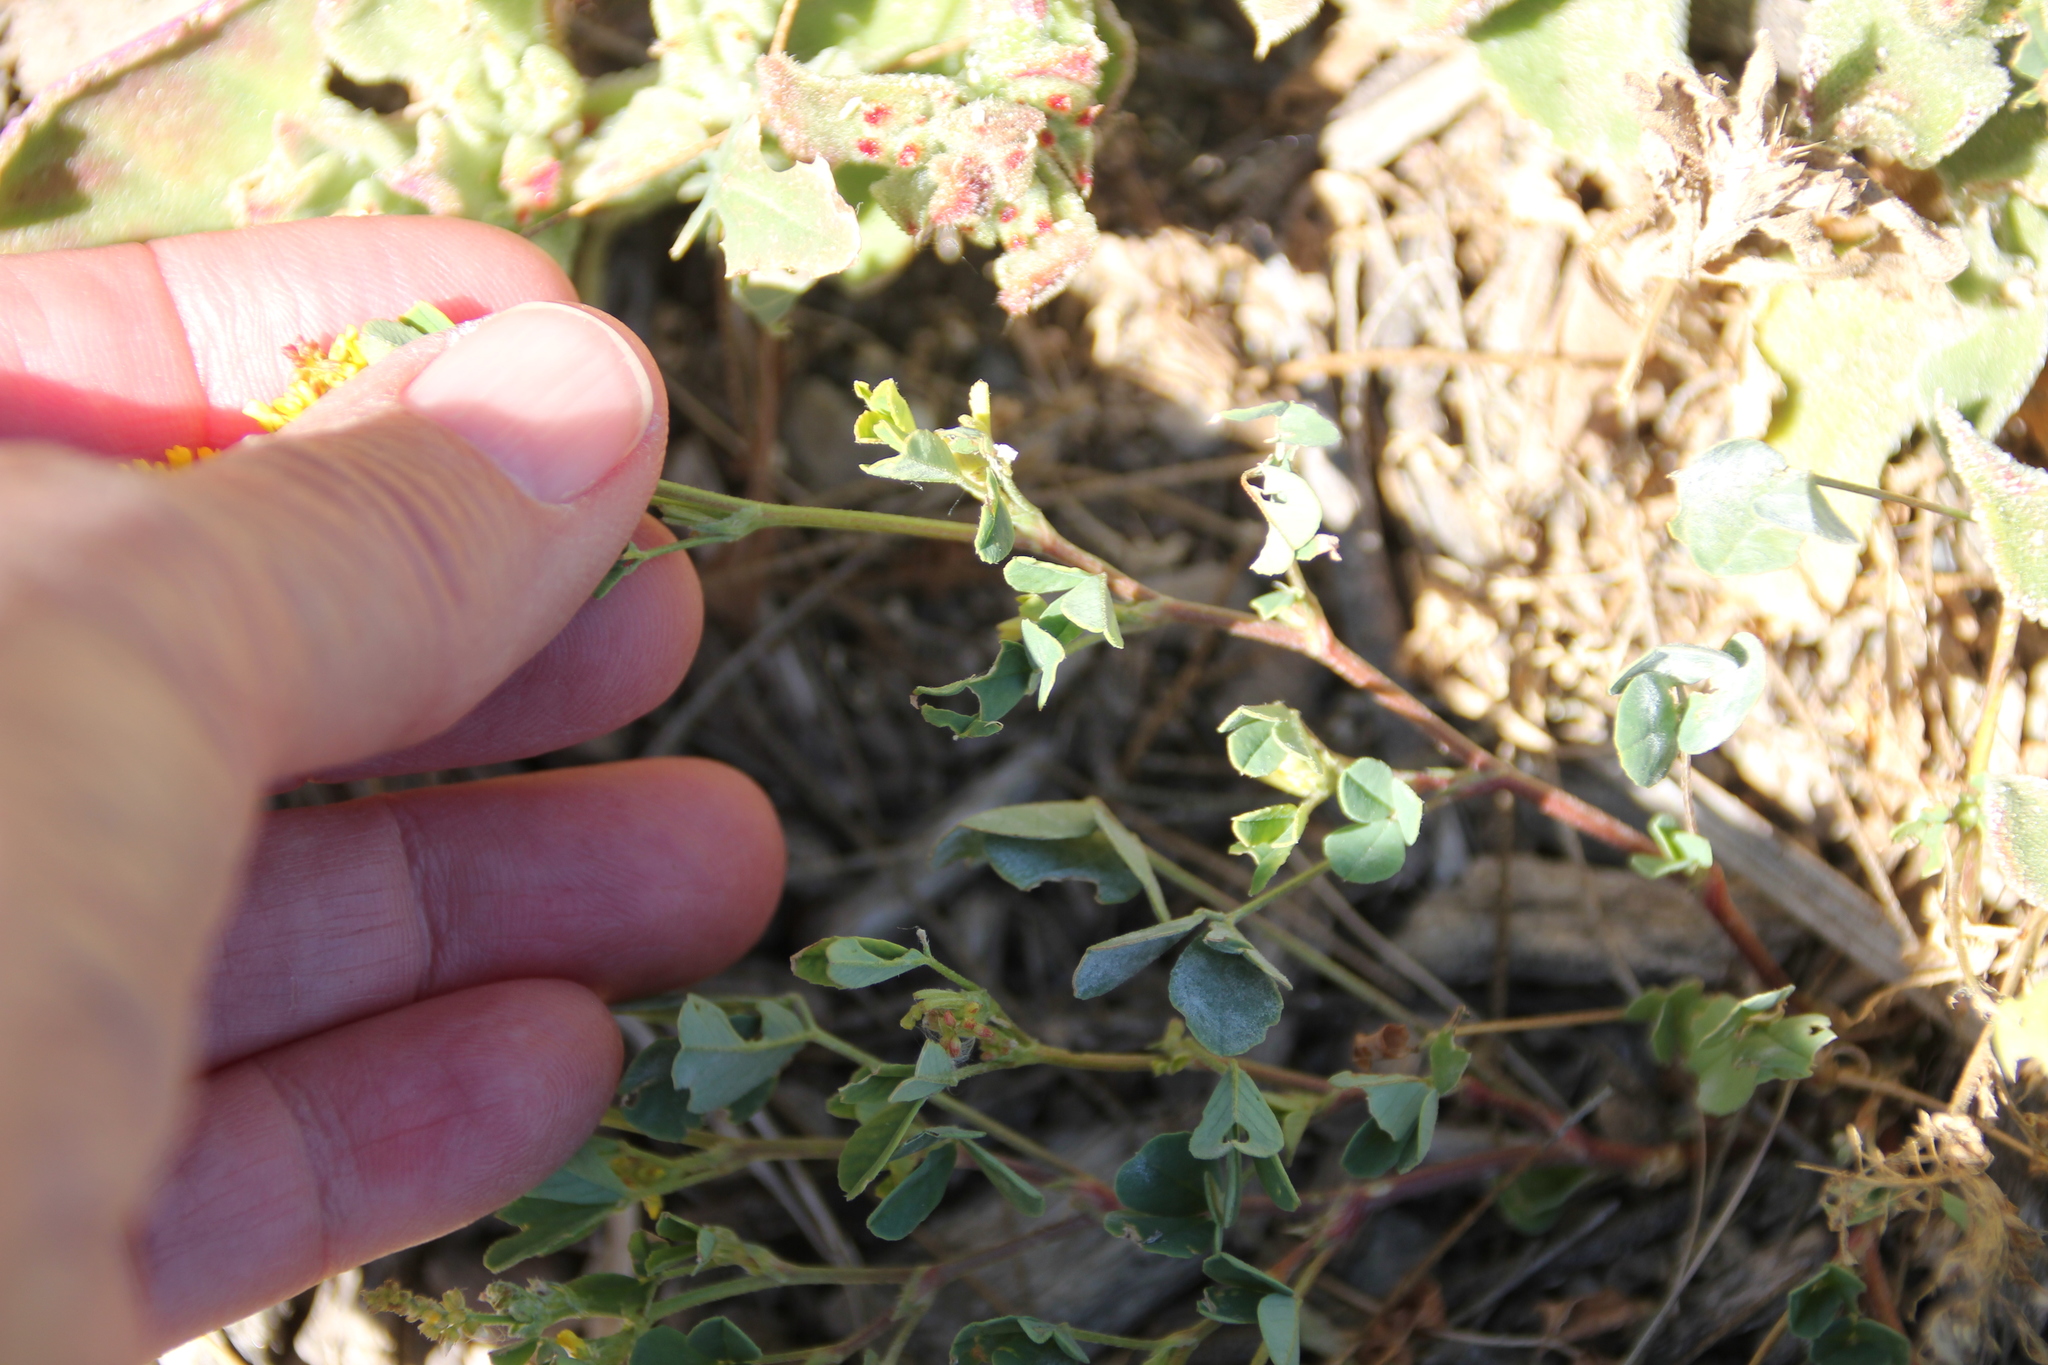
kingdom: Plantae
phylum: Tracheophyta
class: Magnoliopsida
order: Fabales
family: Fabaceae
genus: Melilotus
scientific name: Melilotus indicus
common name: Small melilot
